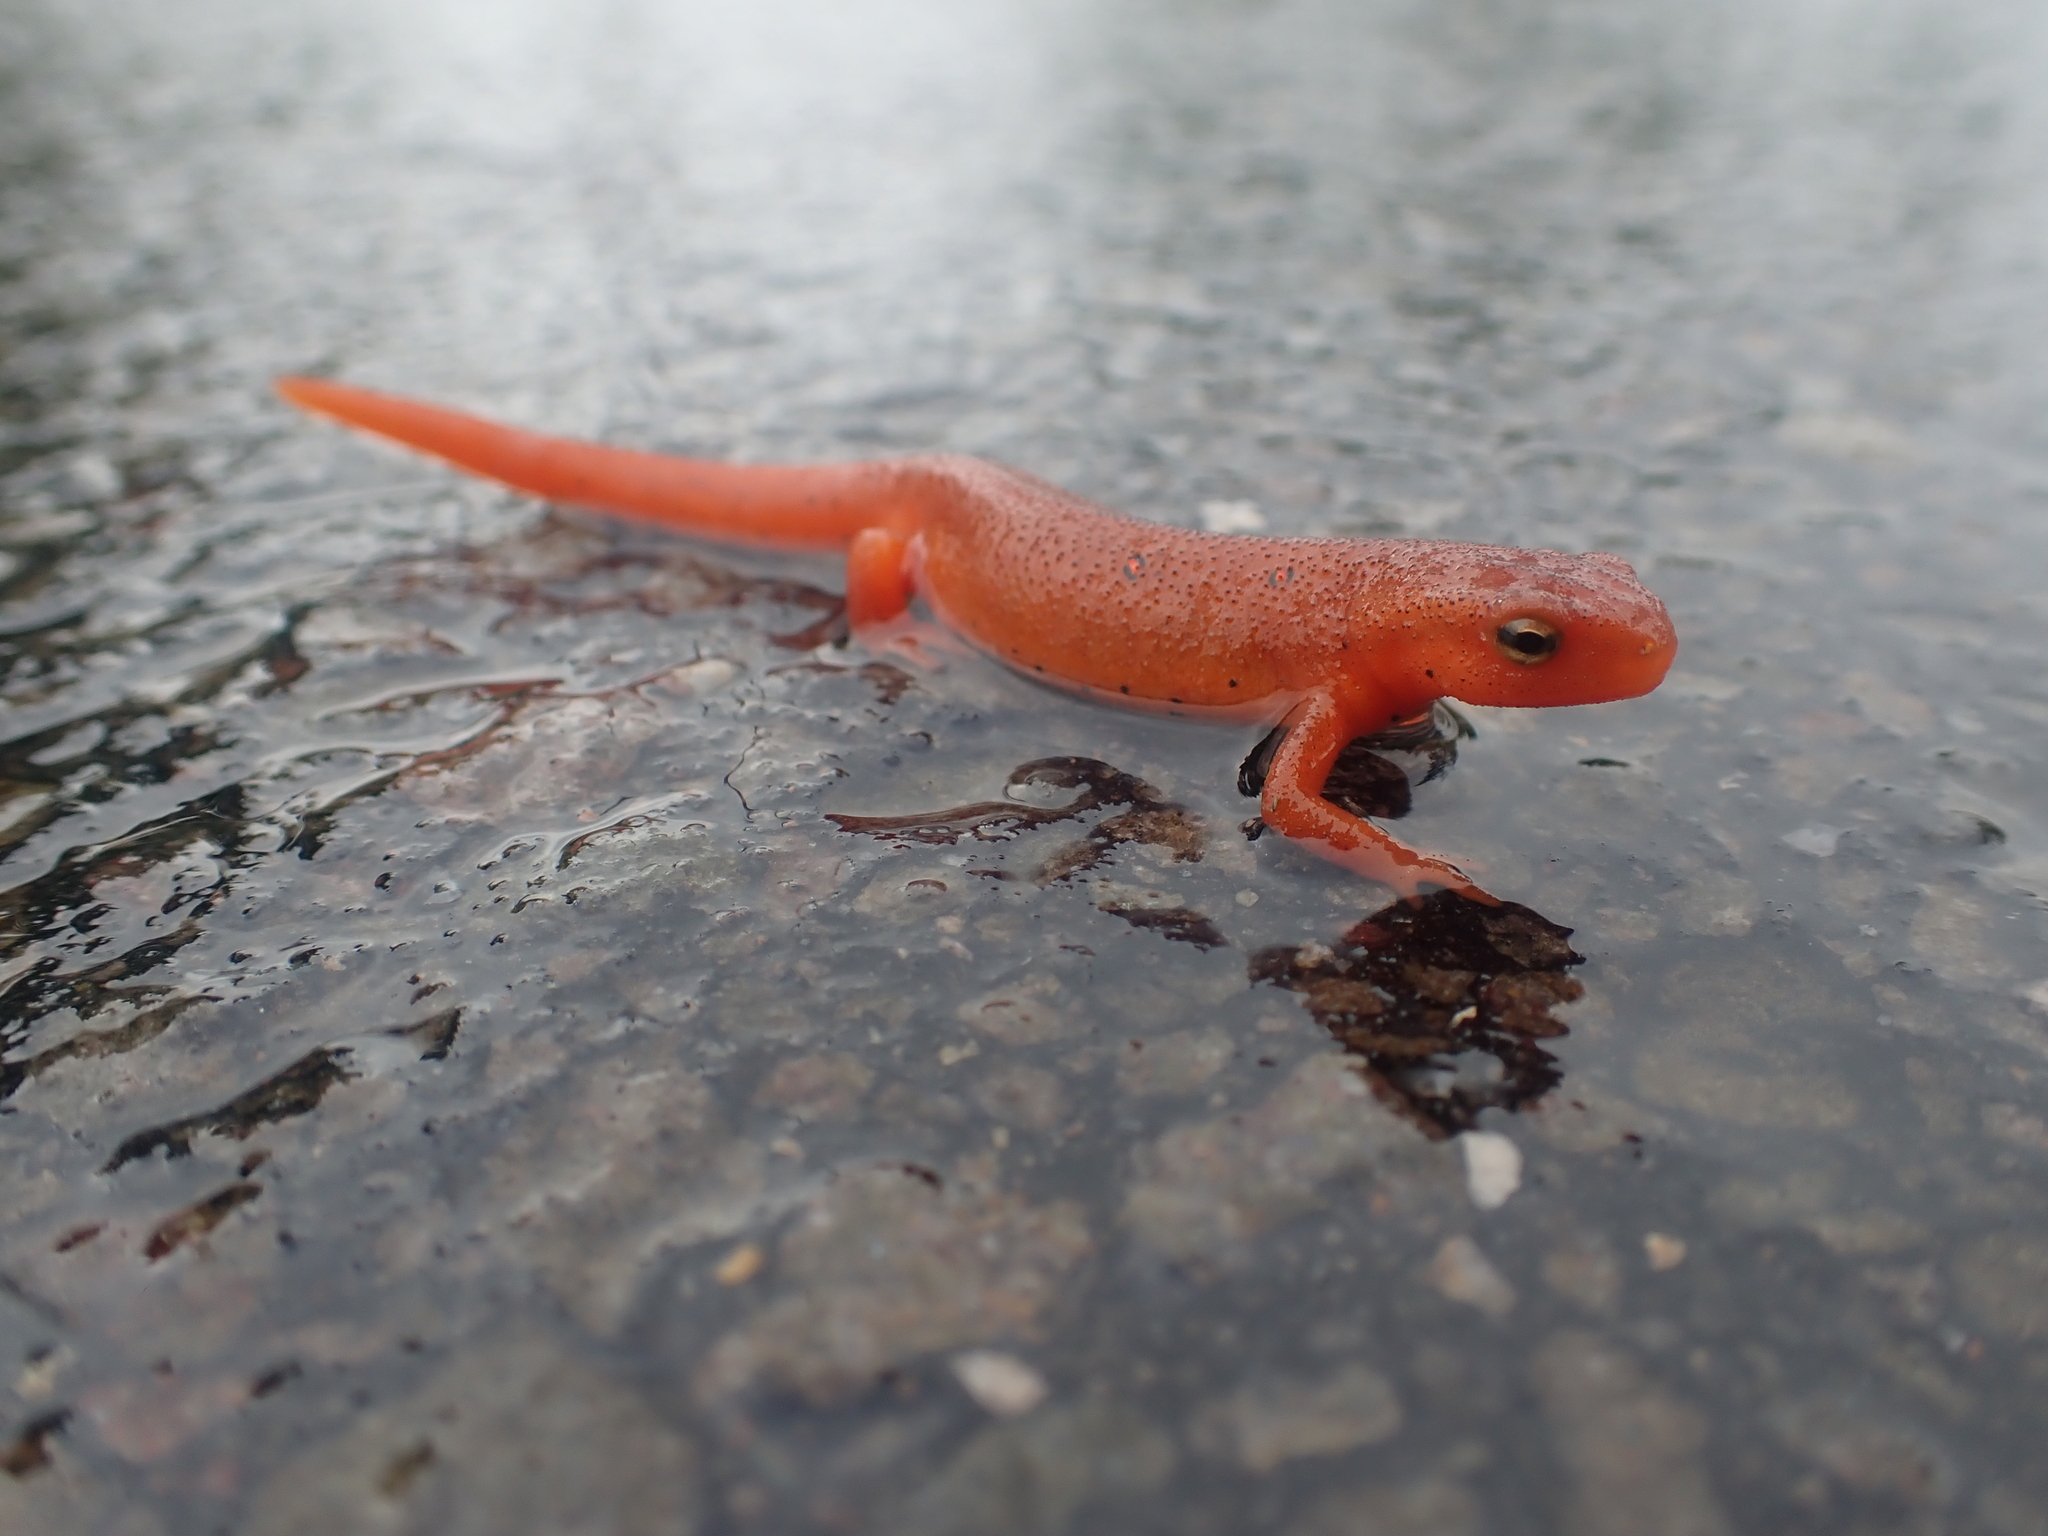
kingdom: Animalia
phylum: Chordata
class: Amphibia
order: Caudata
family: Salamandridae
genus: Notophthalmus
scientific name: Notophthalmus viridescens
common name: Eastern newt
